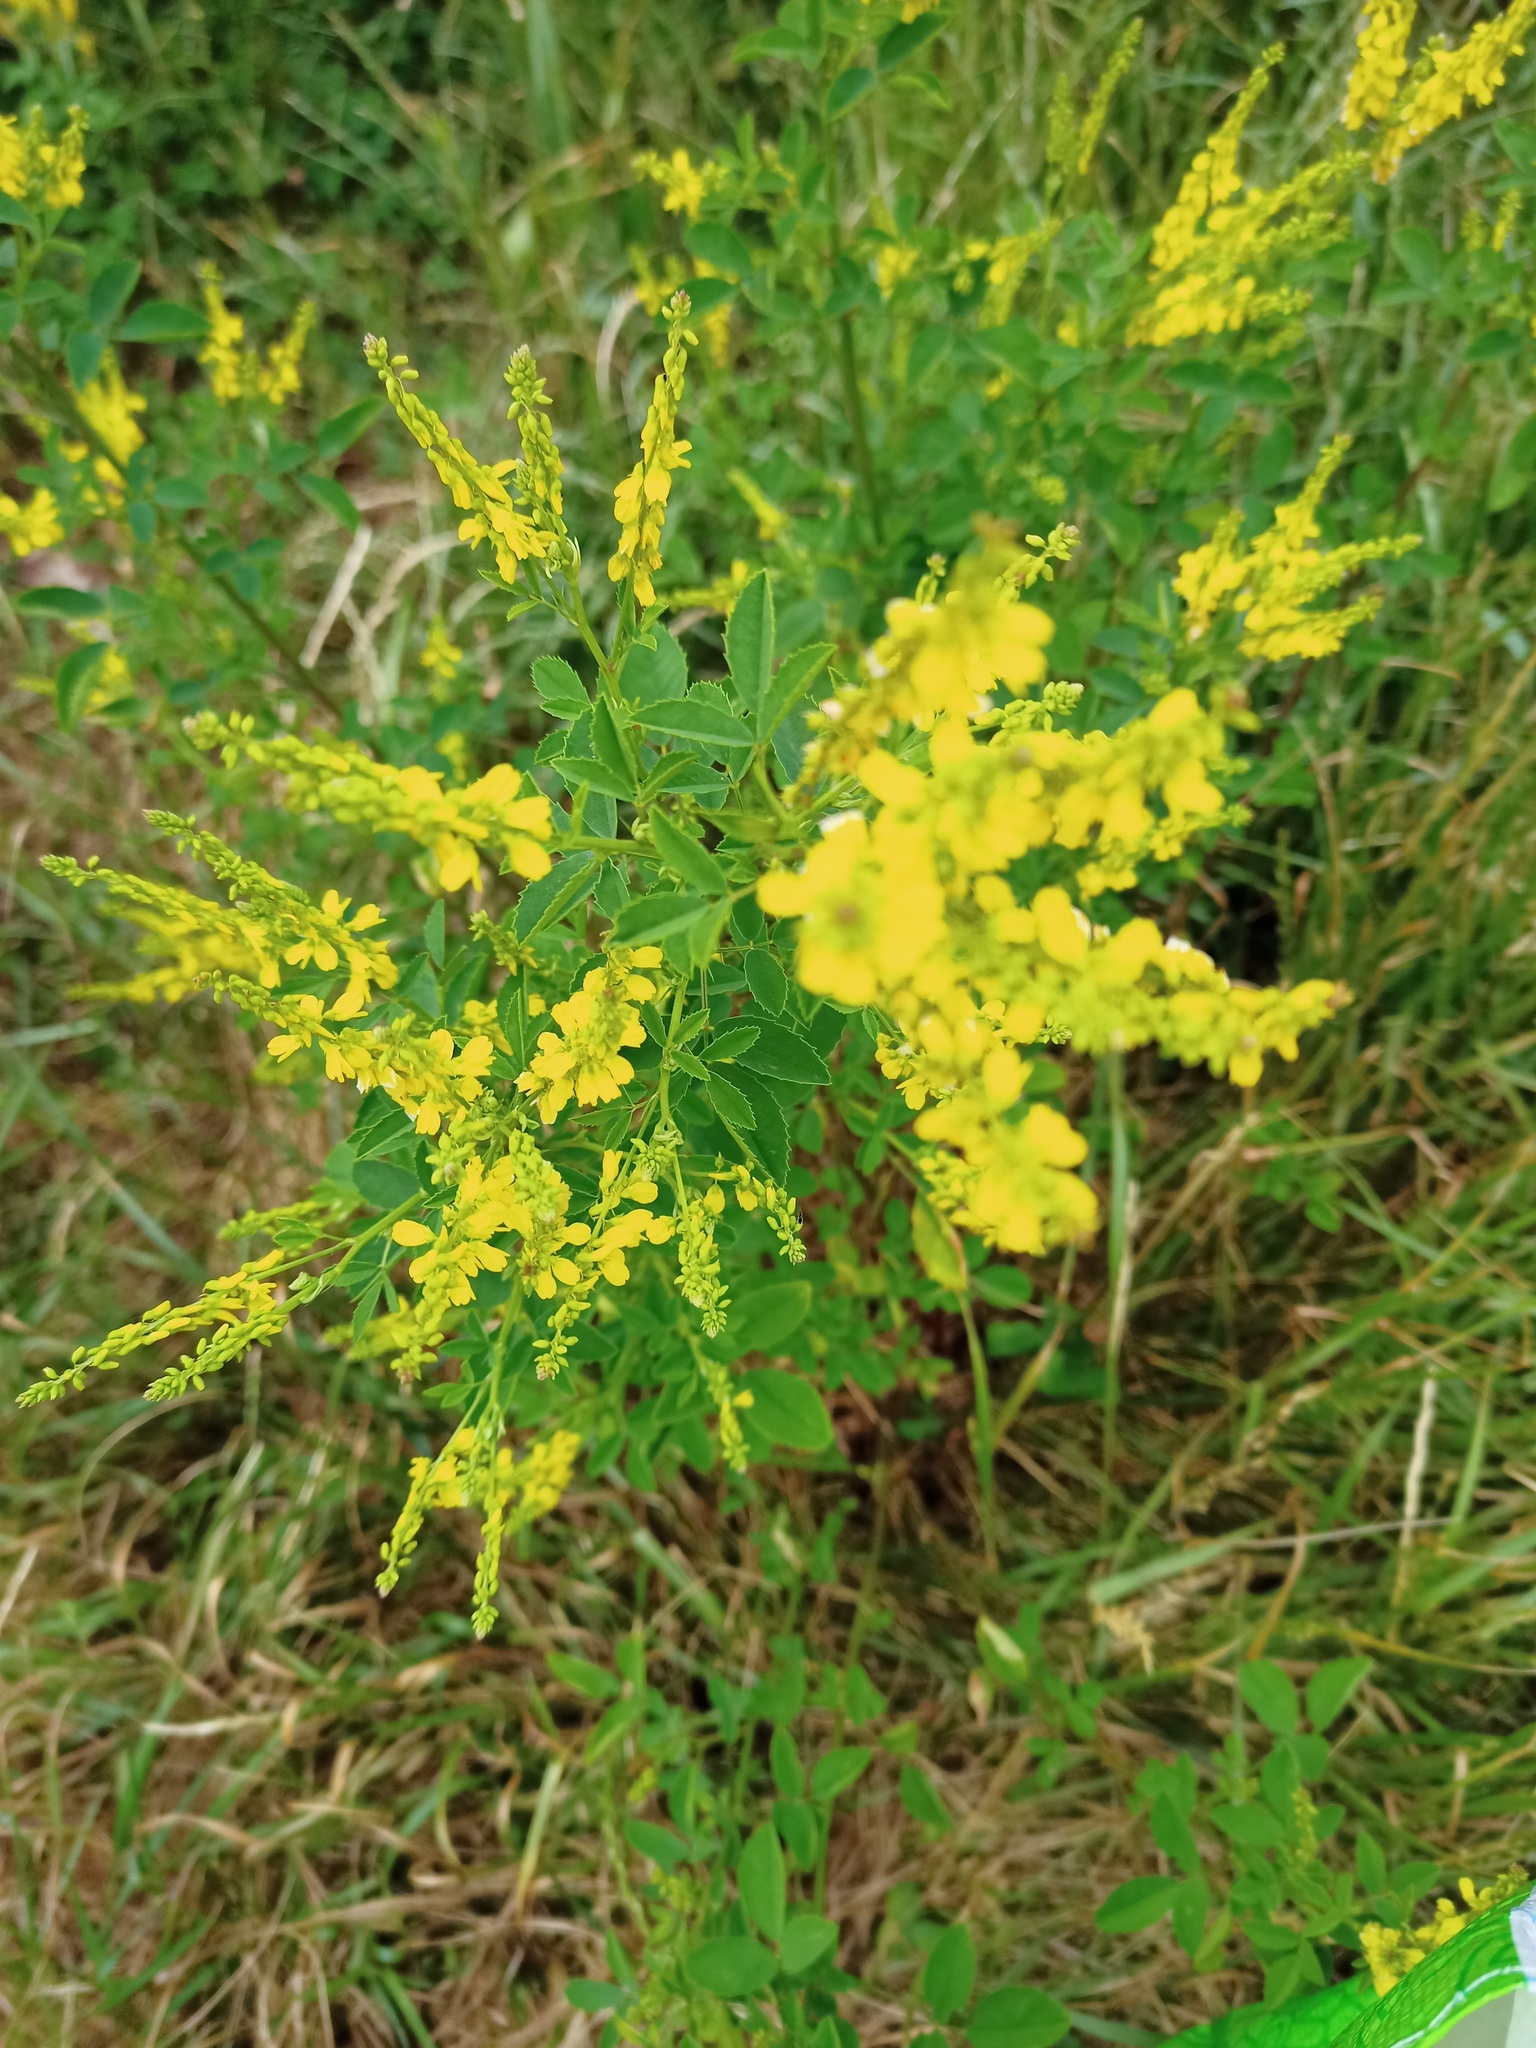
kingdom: Plantae
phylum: Tracheophyta
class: Magnoliopsida
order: Fabales
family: Fabaceae
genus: Melilotus
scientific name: Melilotus officinalis
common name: Sweetclover
